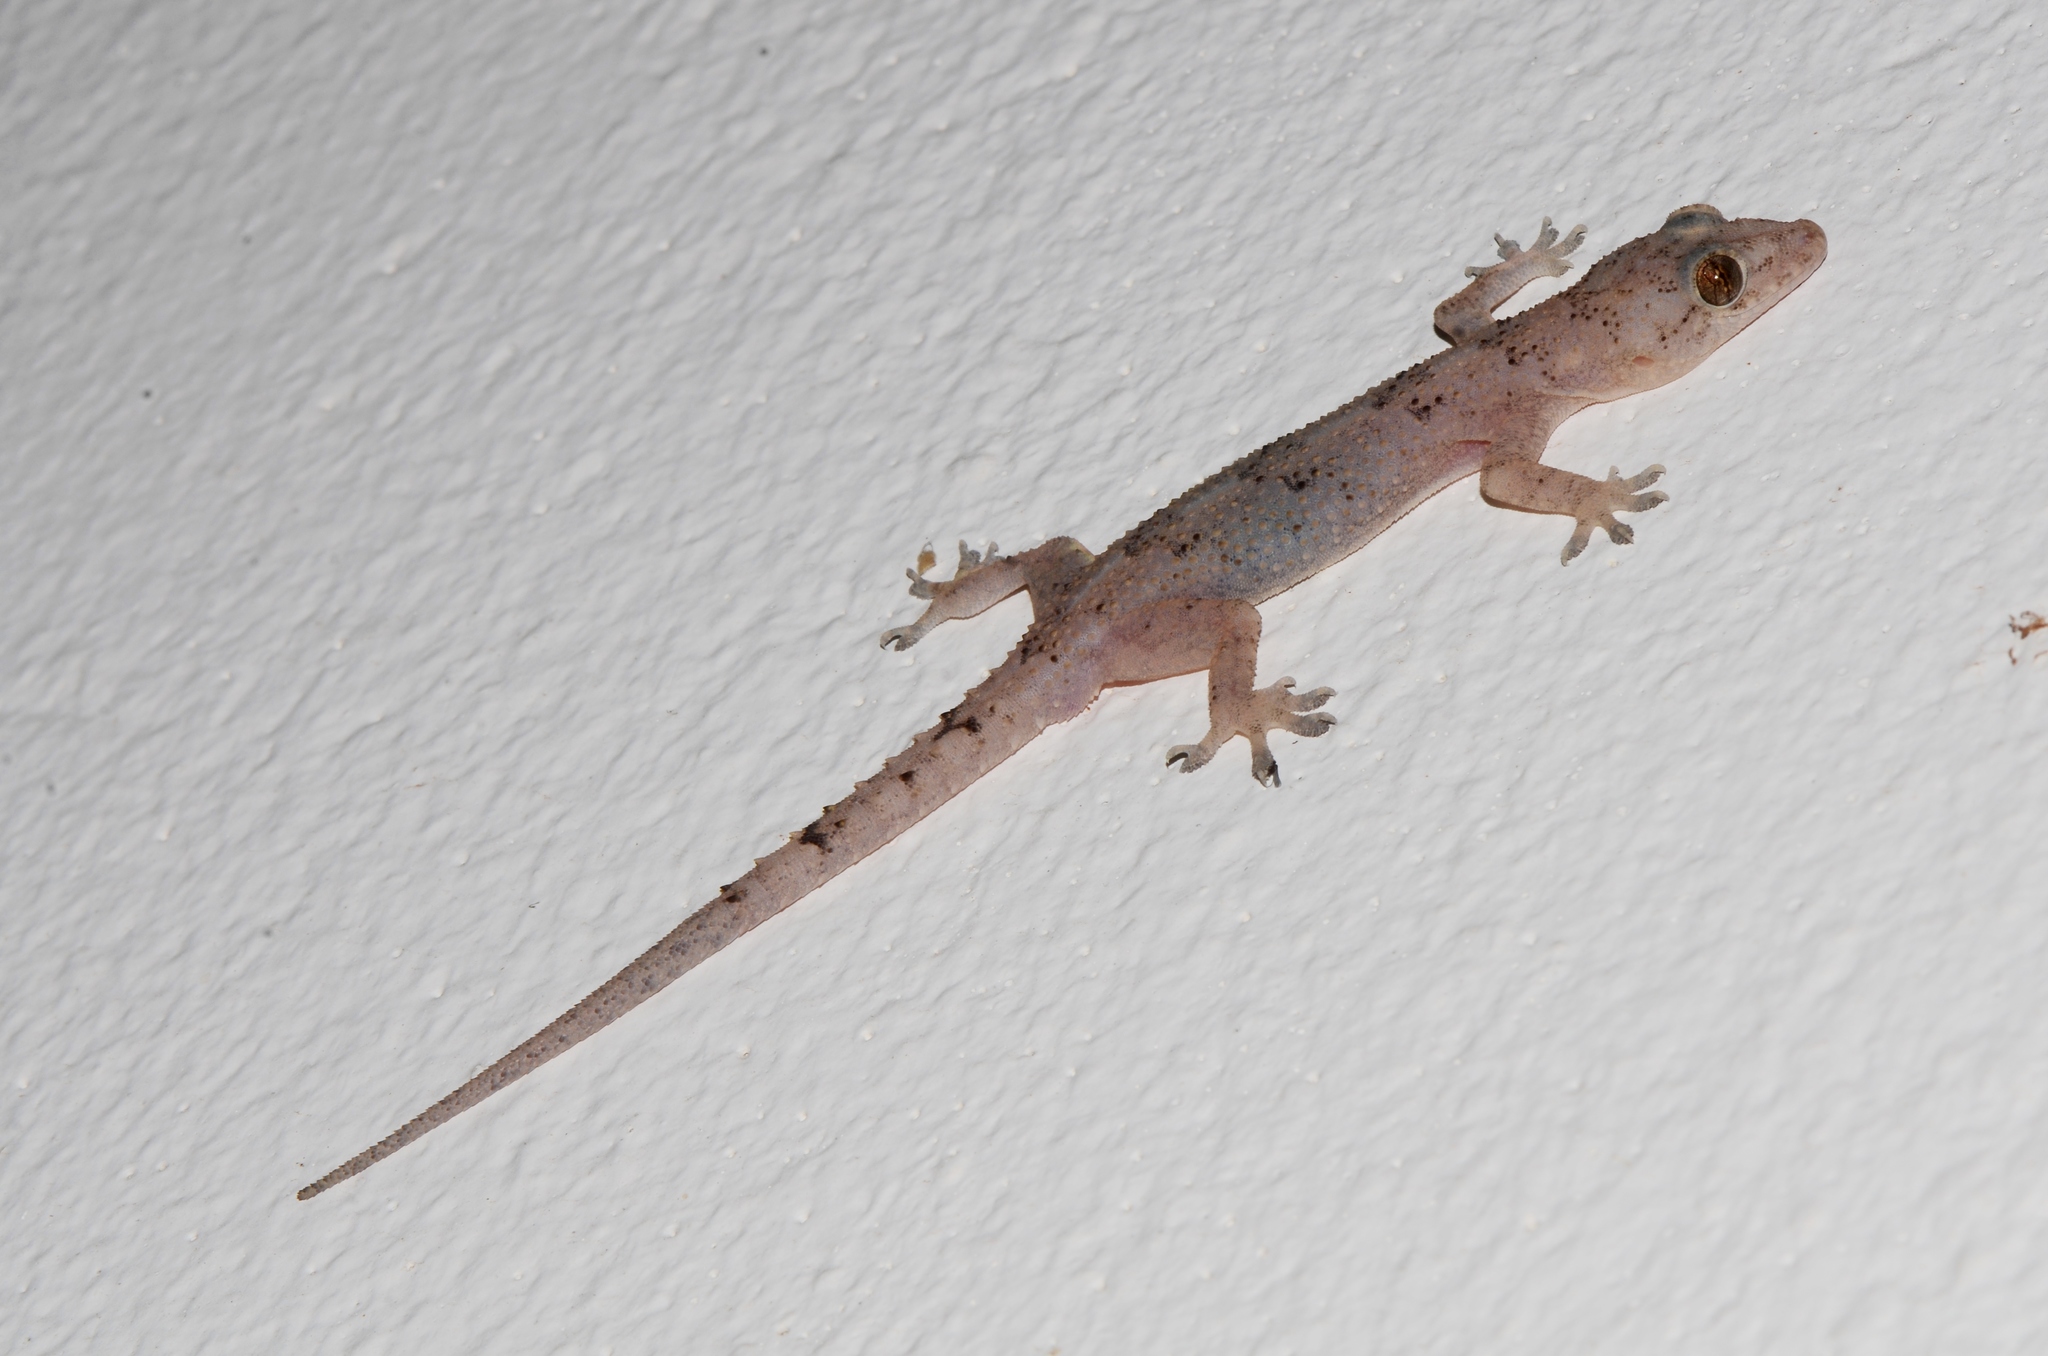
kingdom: Animalia
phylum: Chordata
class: Squamata
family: Gekkonidae
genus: Hemidactylus
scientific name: Hemidactylus mabouia
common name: House gecko
